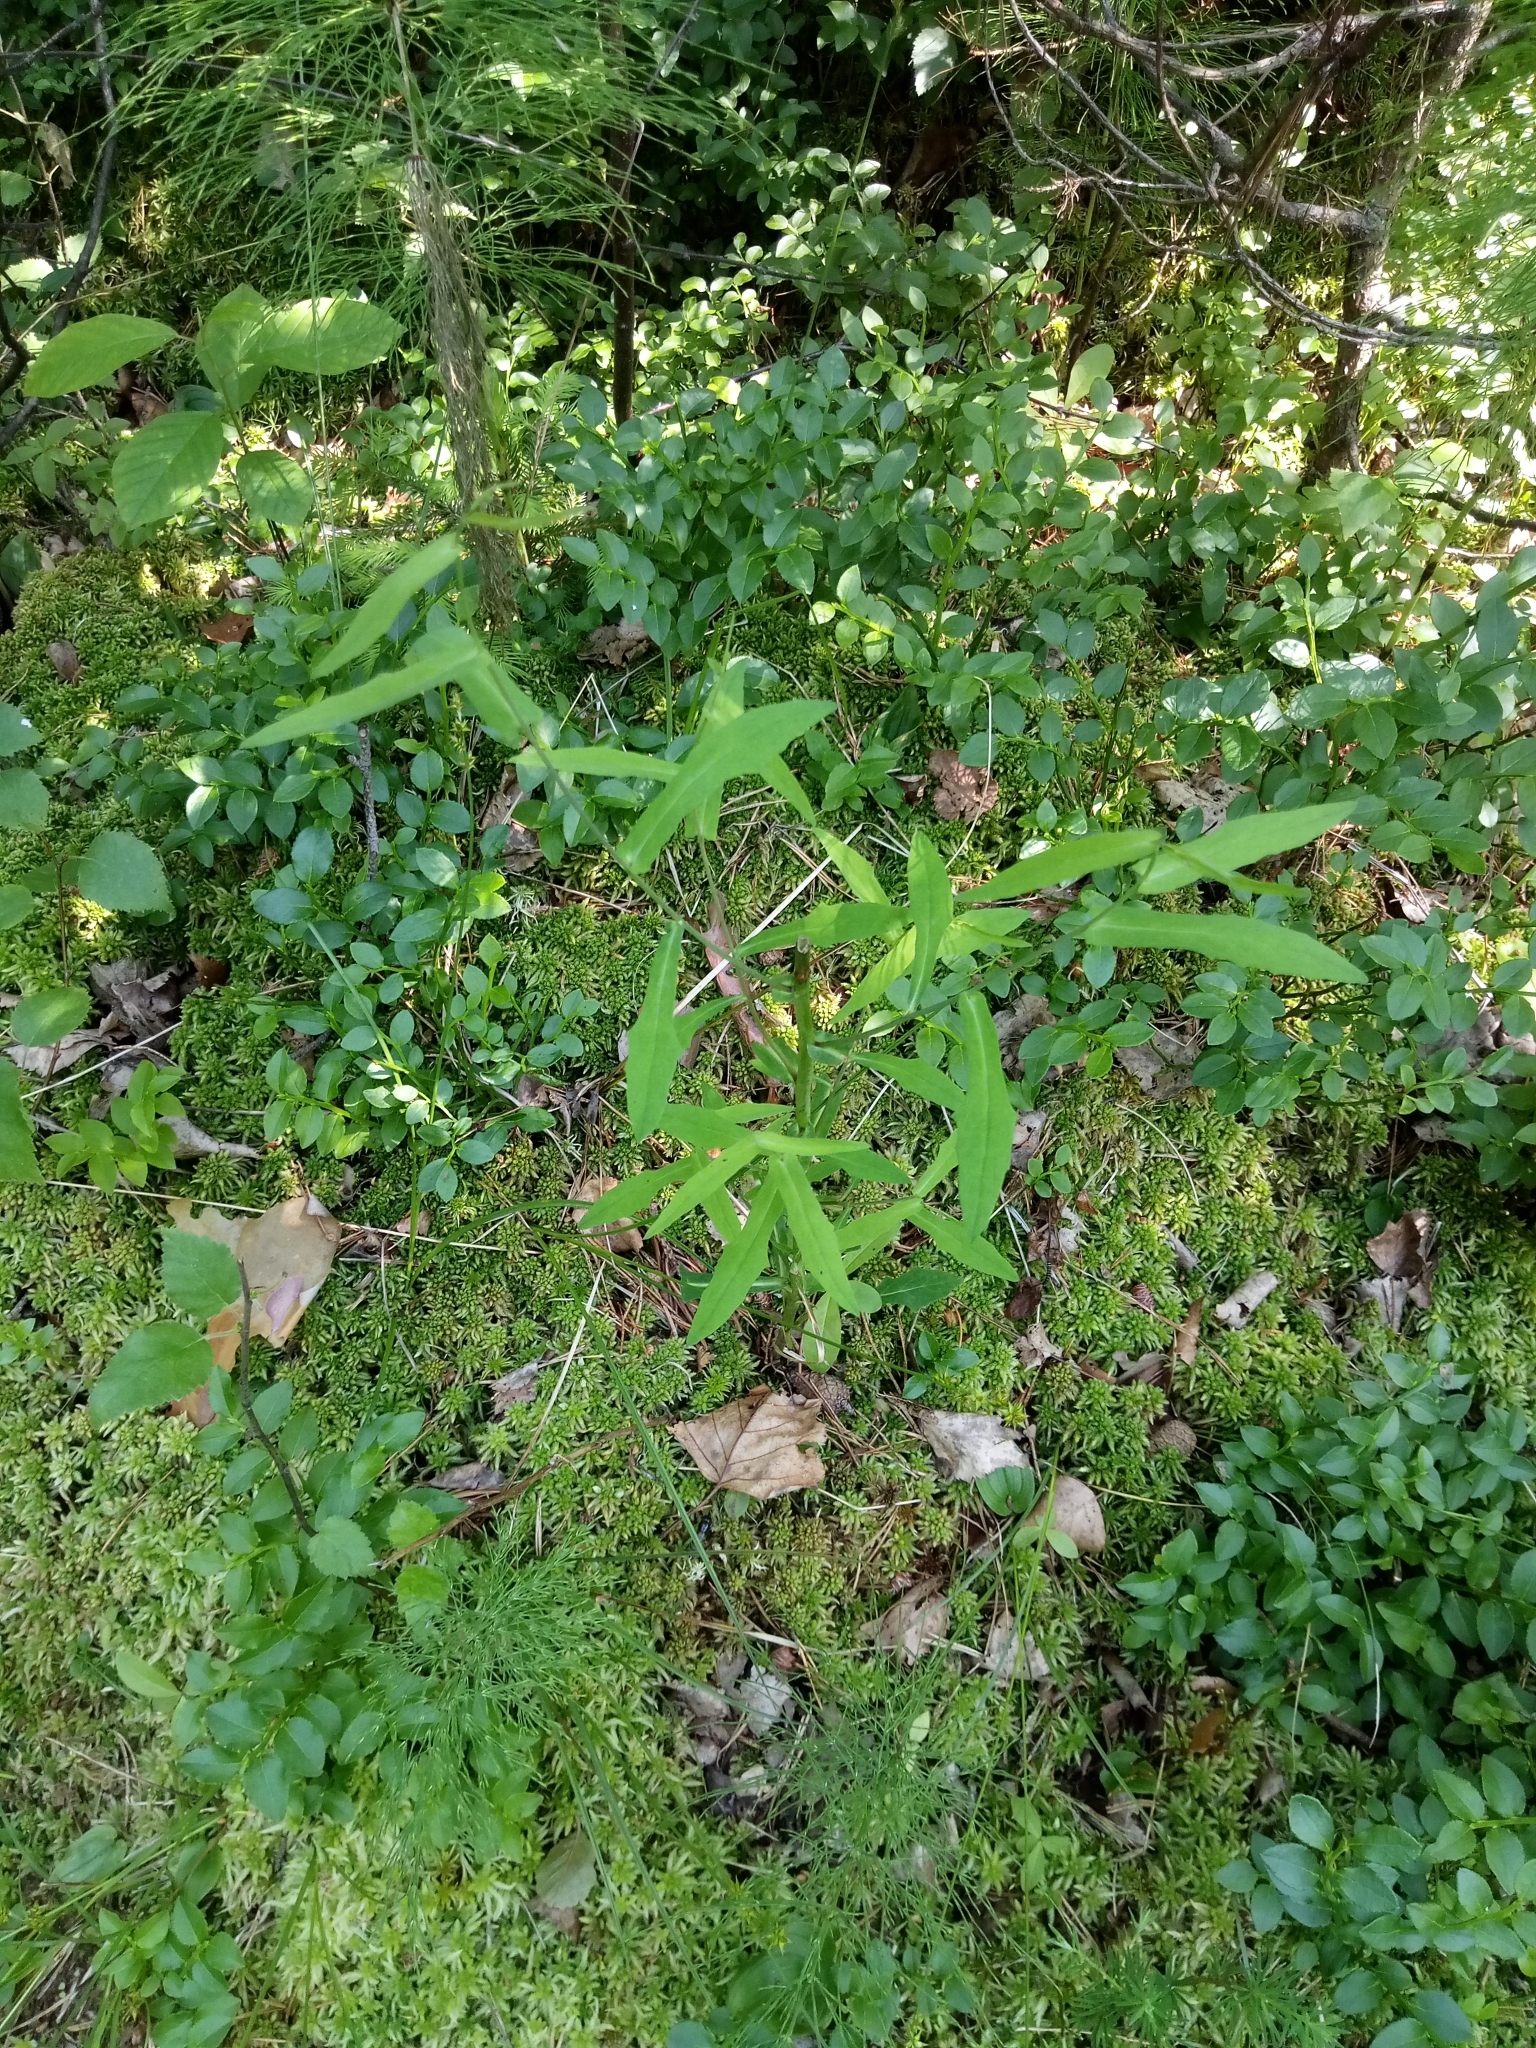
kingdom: Plantae
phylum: Tracheophyta
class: Magnoliopsida
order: Asterales
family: Asteraceae
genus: Prenanthes
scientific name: Prenanthes purpurea
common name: Purple lettuce
